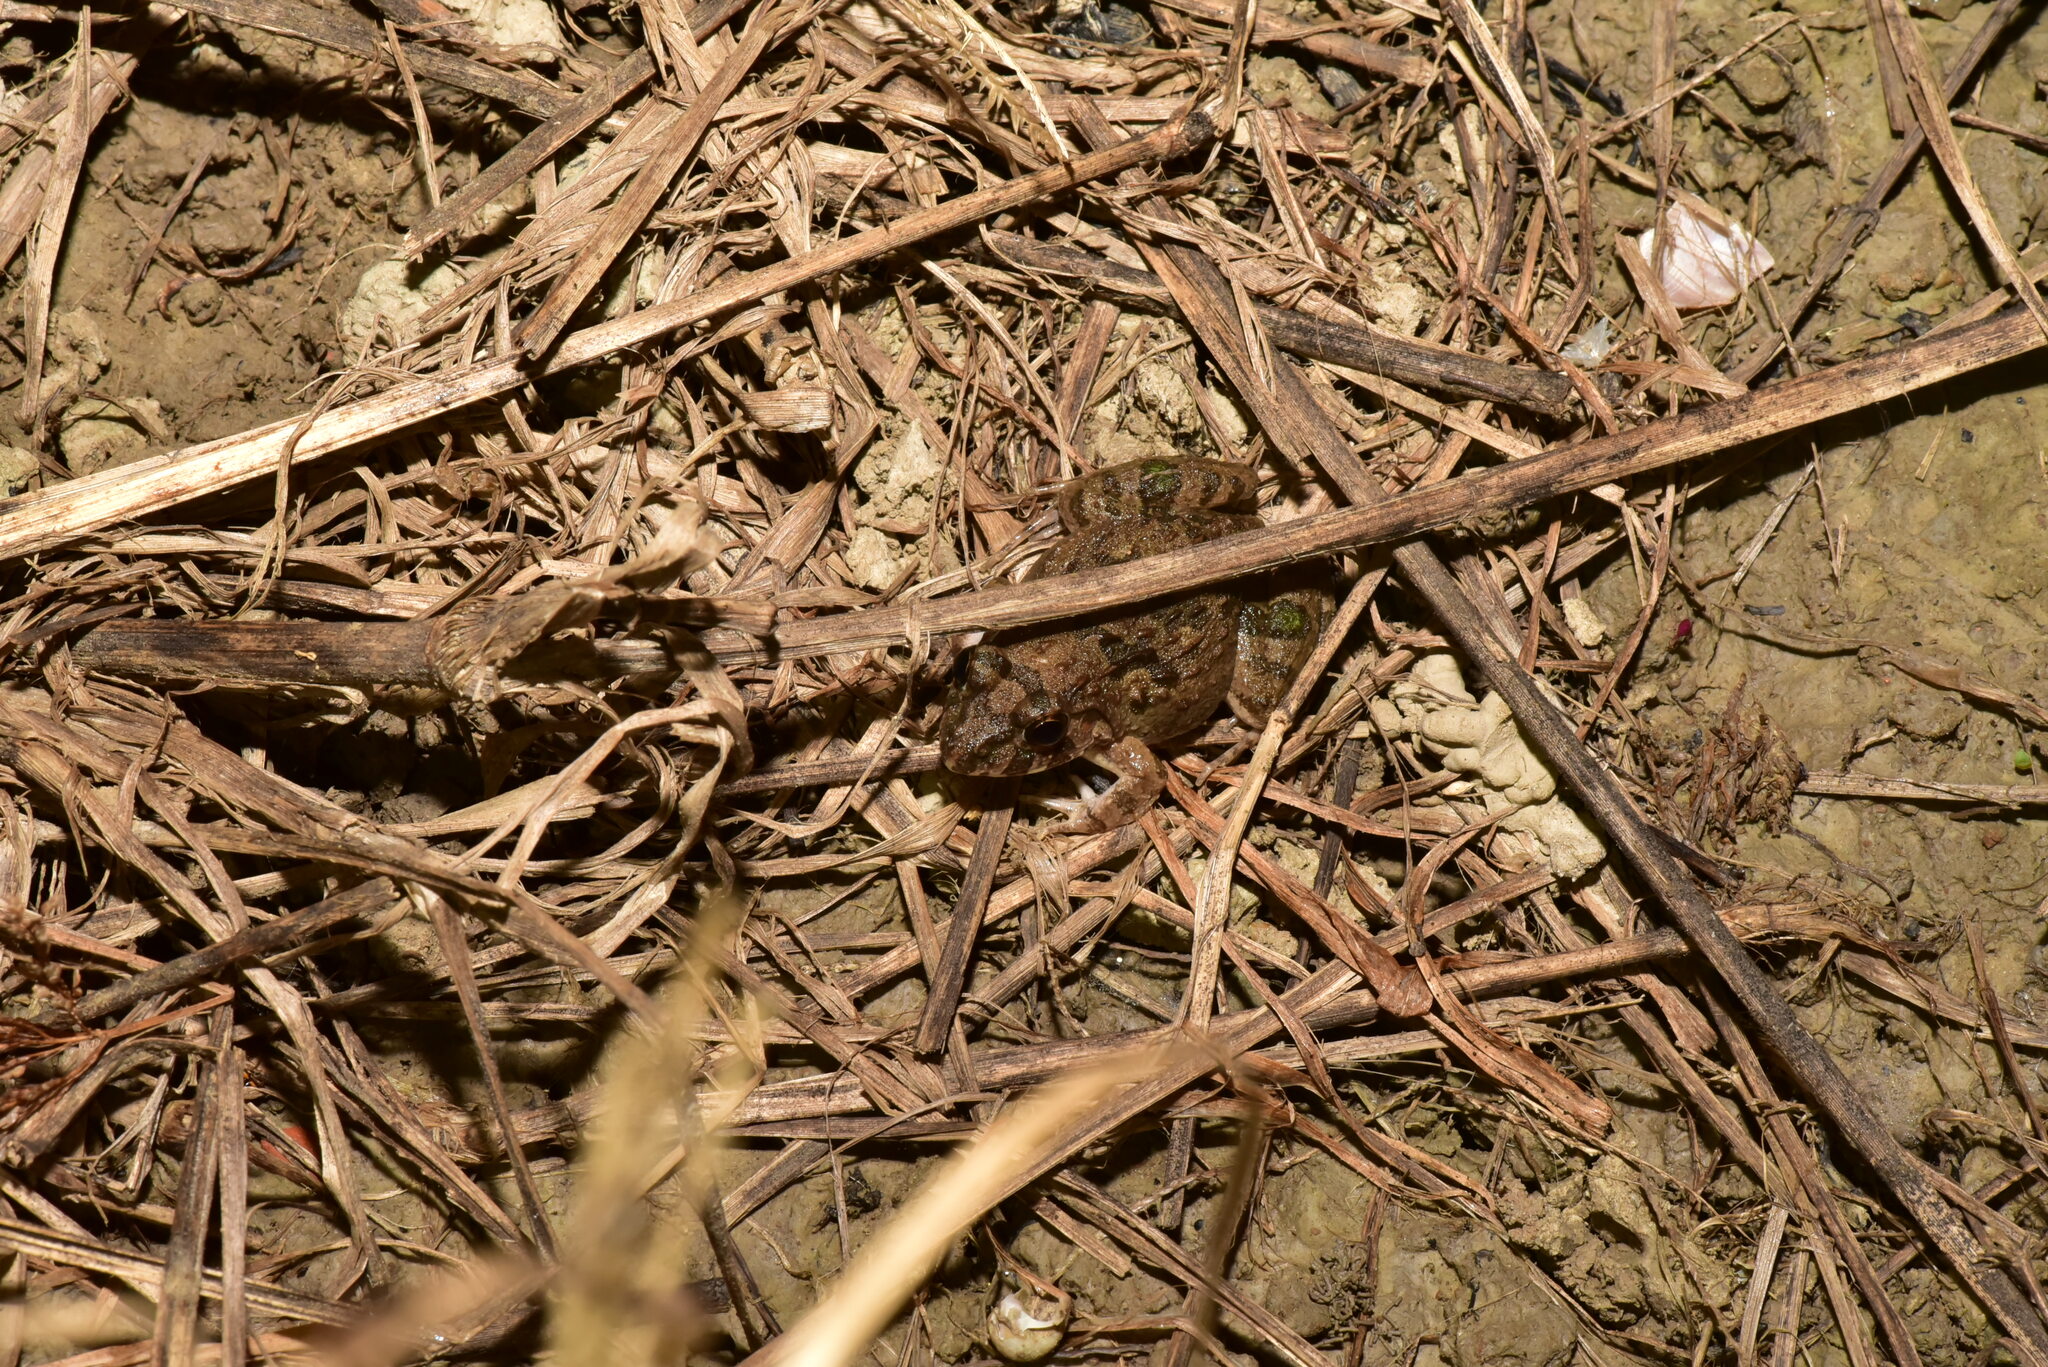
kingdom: Animalia
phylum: Chordata
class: Amphibia
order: Anura
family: Dicroglossidae
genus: Fejervarya
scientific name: Fejervarya limnocharis
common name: Asian grass frog/common pond frog/field frog/grass frog/indian rice frog
